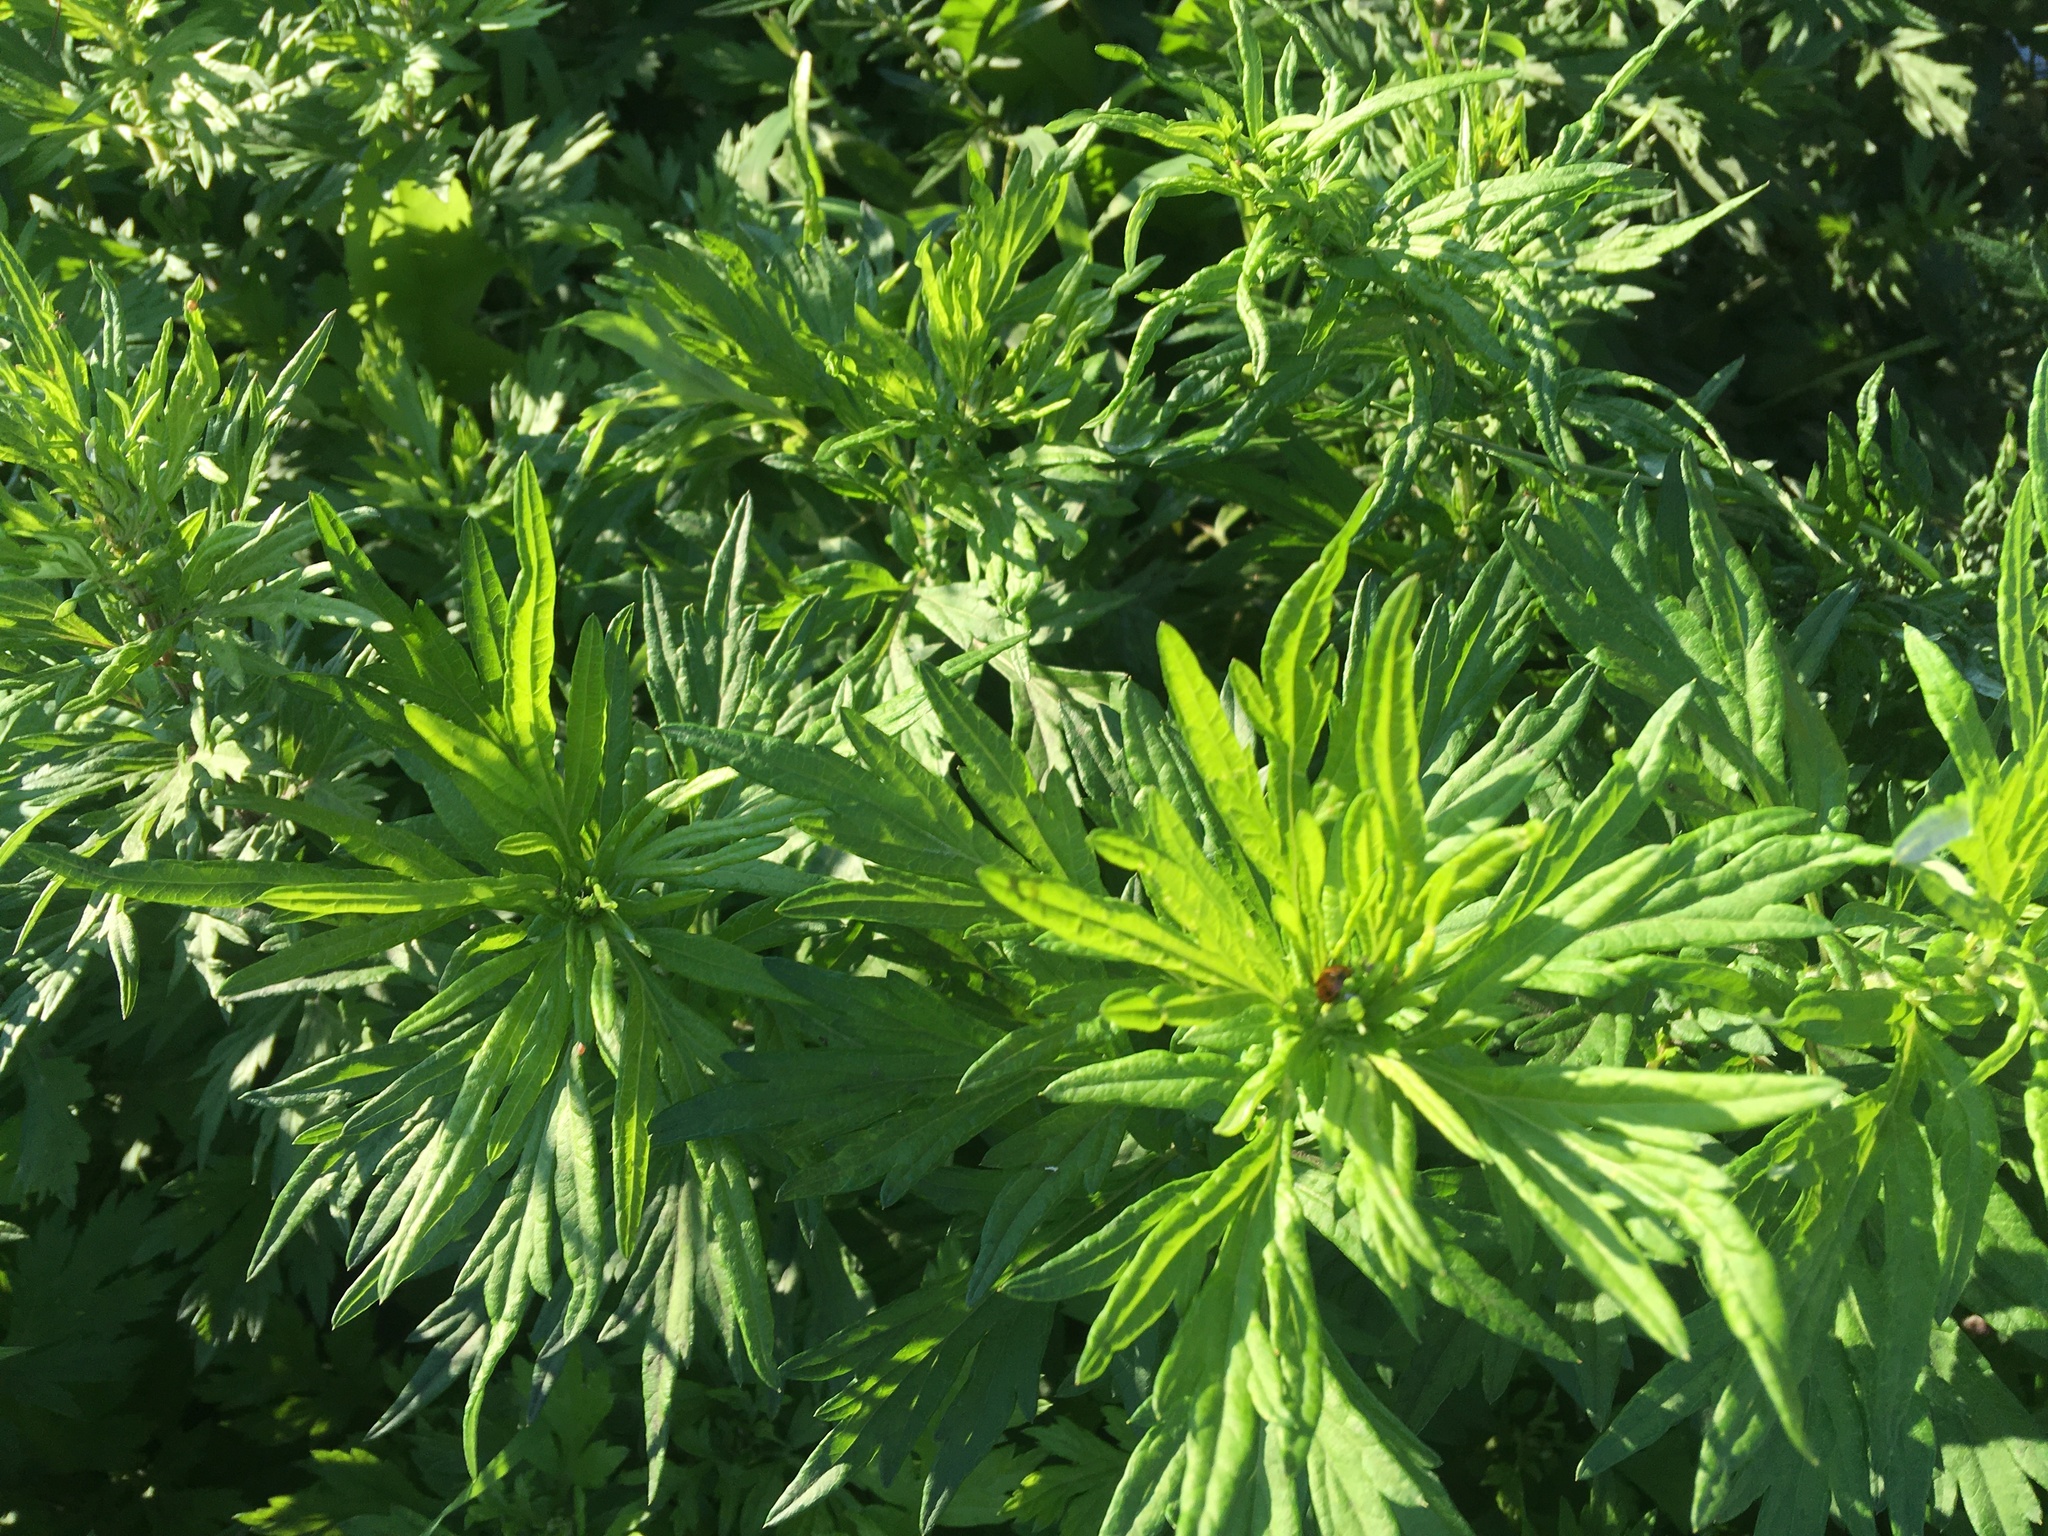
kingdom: Plantae
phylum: Tracheophyta
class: Magnoliopsida
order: Asterales
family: Asteraceae
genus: Artemisia
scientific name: Artemisia vulgaris
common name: Mugwort
